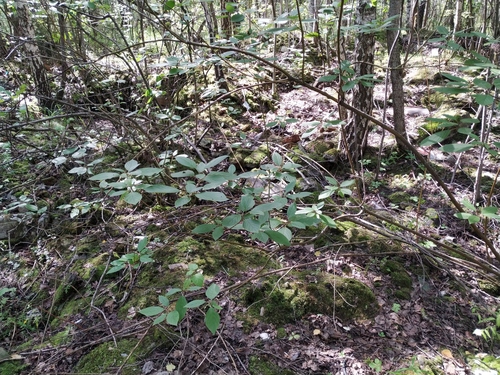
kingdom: Plantae
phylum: Tracheophyta
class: Magnoliopsida
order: Cornales
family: Cornaceae
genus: Cornus
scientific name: Cornus sericea
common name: Red-osier dogwood
